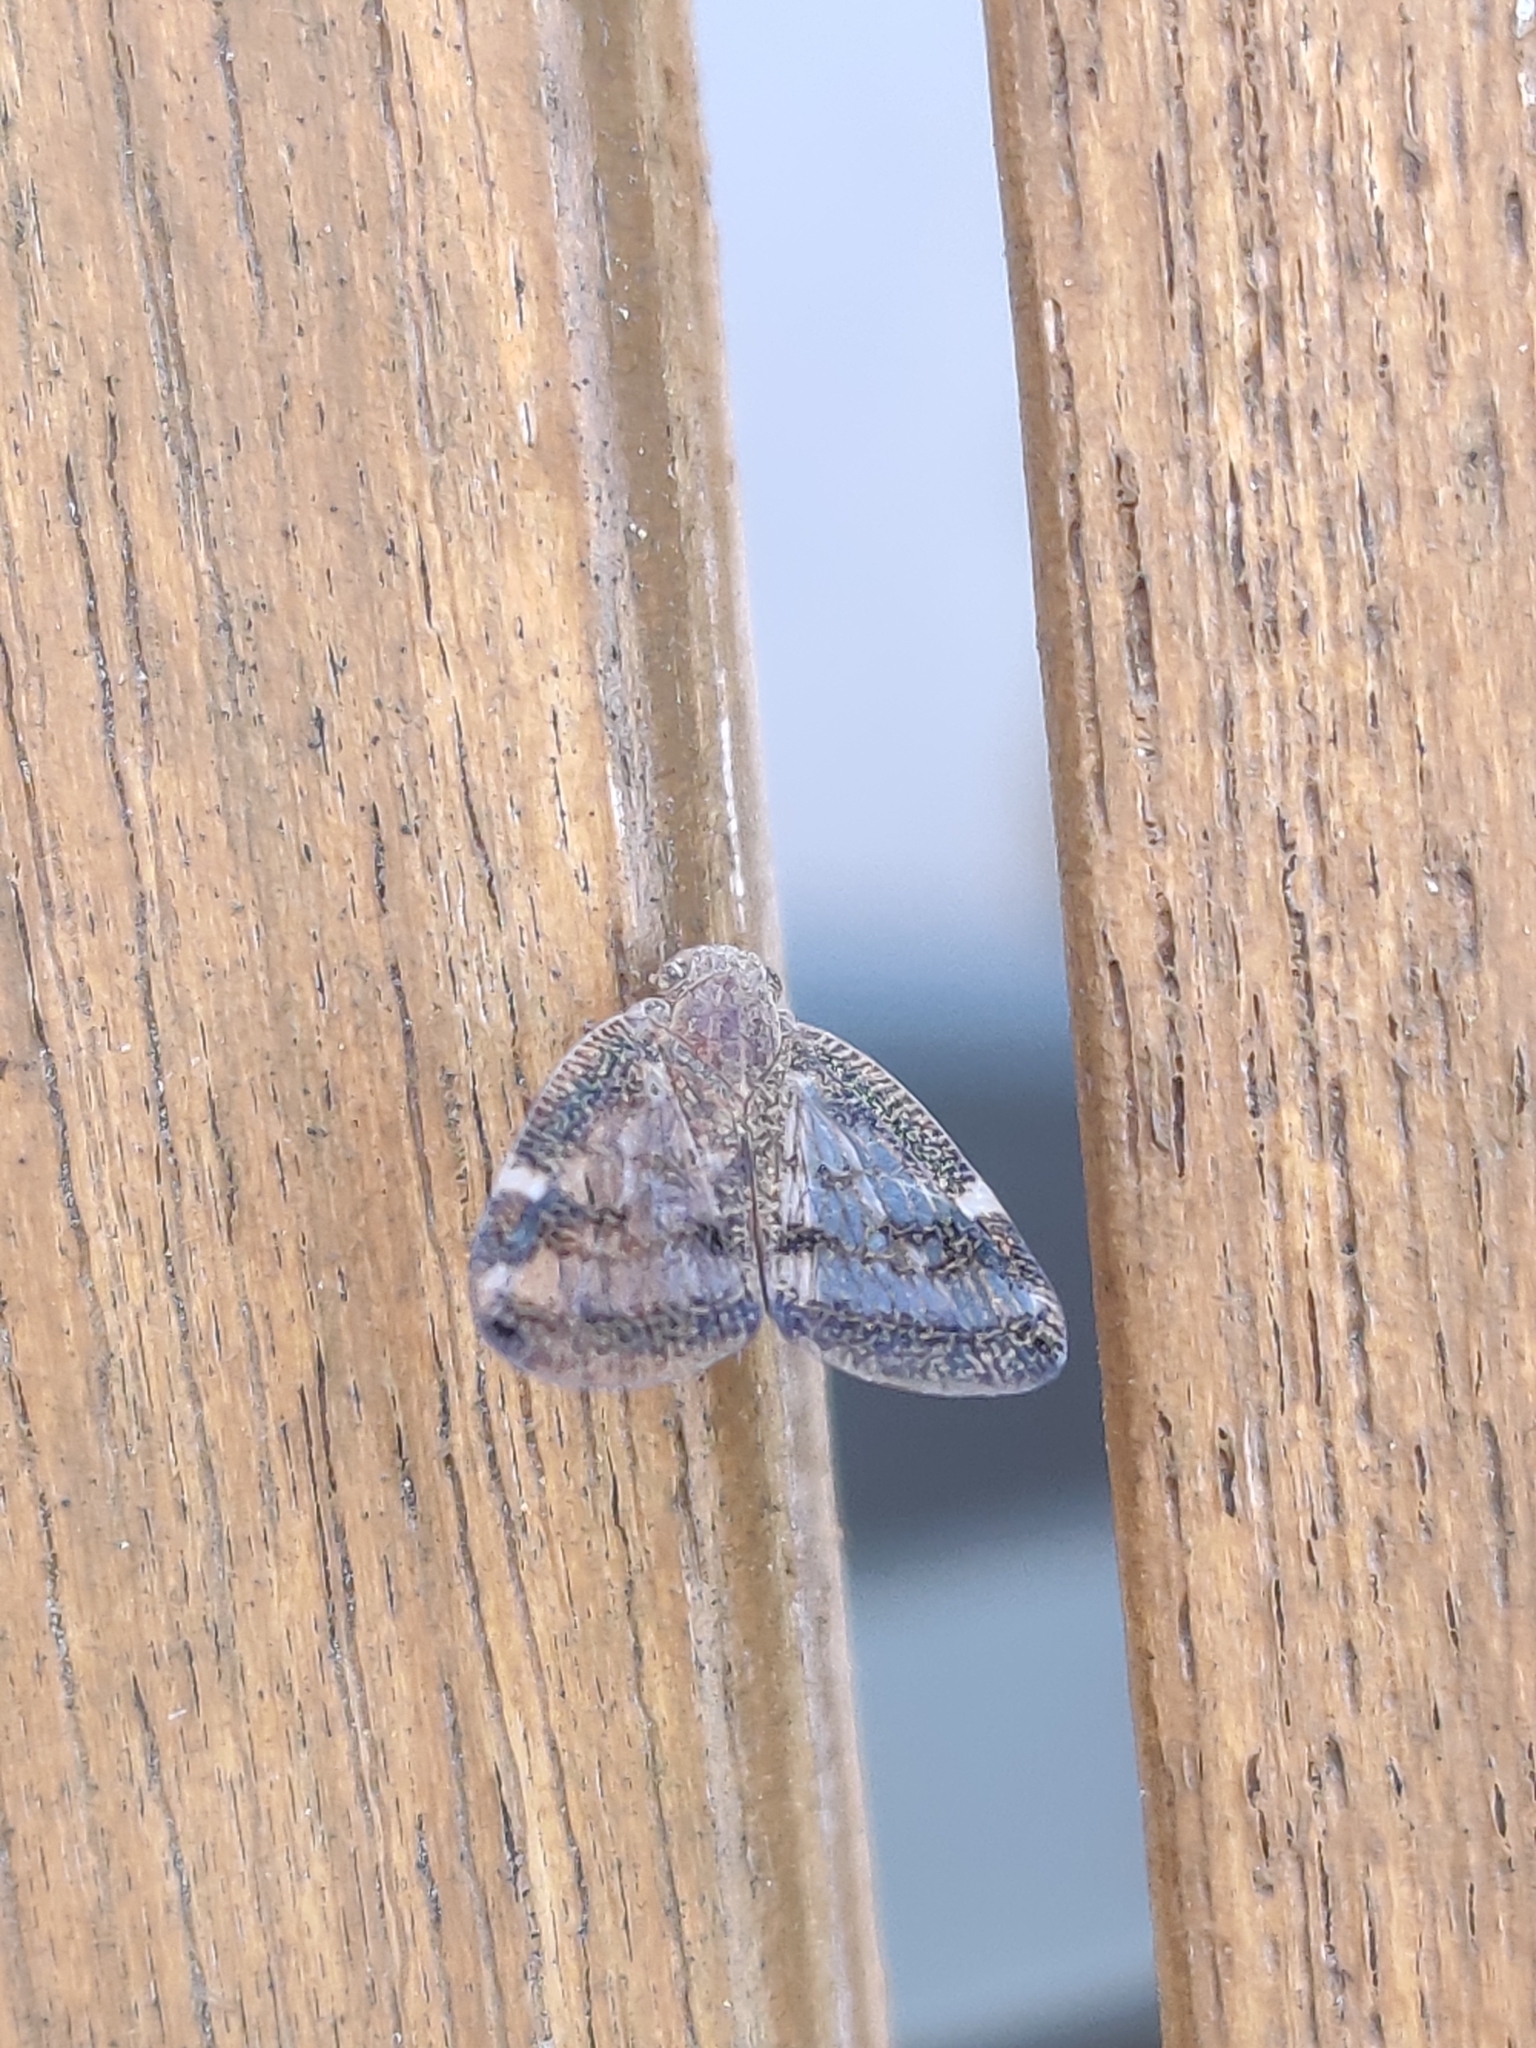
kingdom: Animalia
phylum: Arthropoda
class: Insecta
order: Hemiptera
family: Ricaniidae
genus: Scolypopa
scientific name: Scolypopa australis
